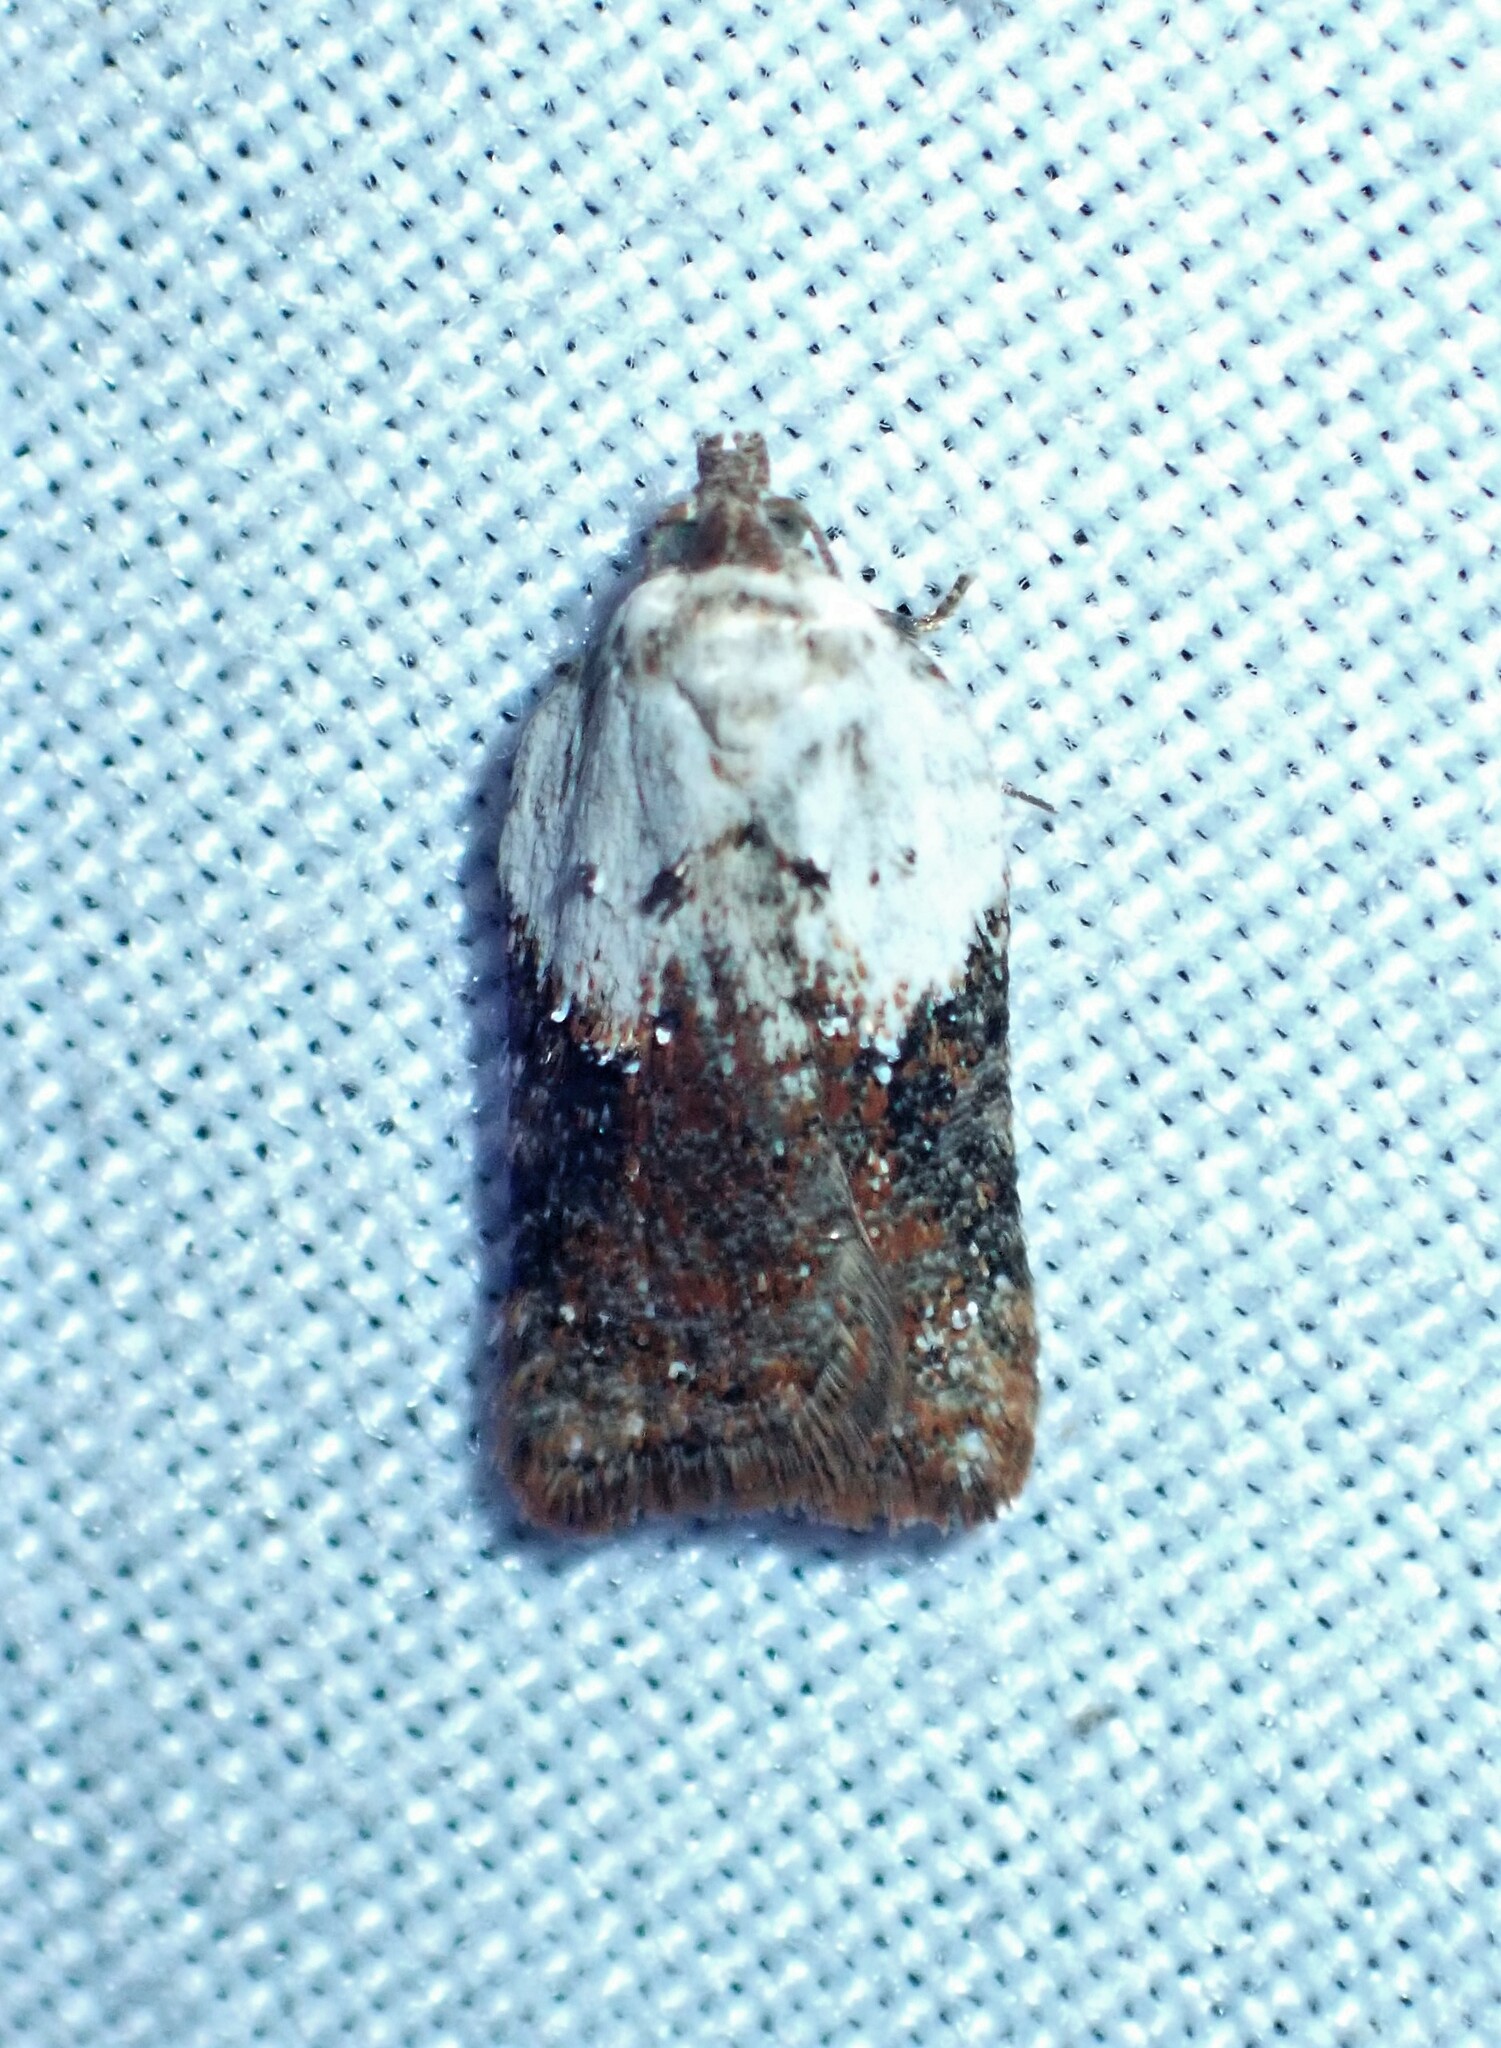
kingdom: Animalia
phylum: Arthropoda
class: Insecta
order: Lepidoptera
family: Tortricidae
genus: Acleris
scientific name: Acleris braunana
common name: Alder leafroller
